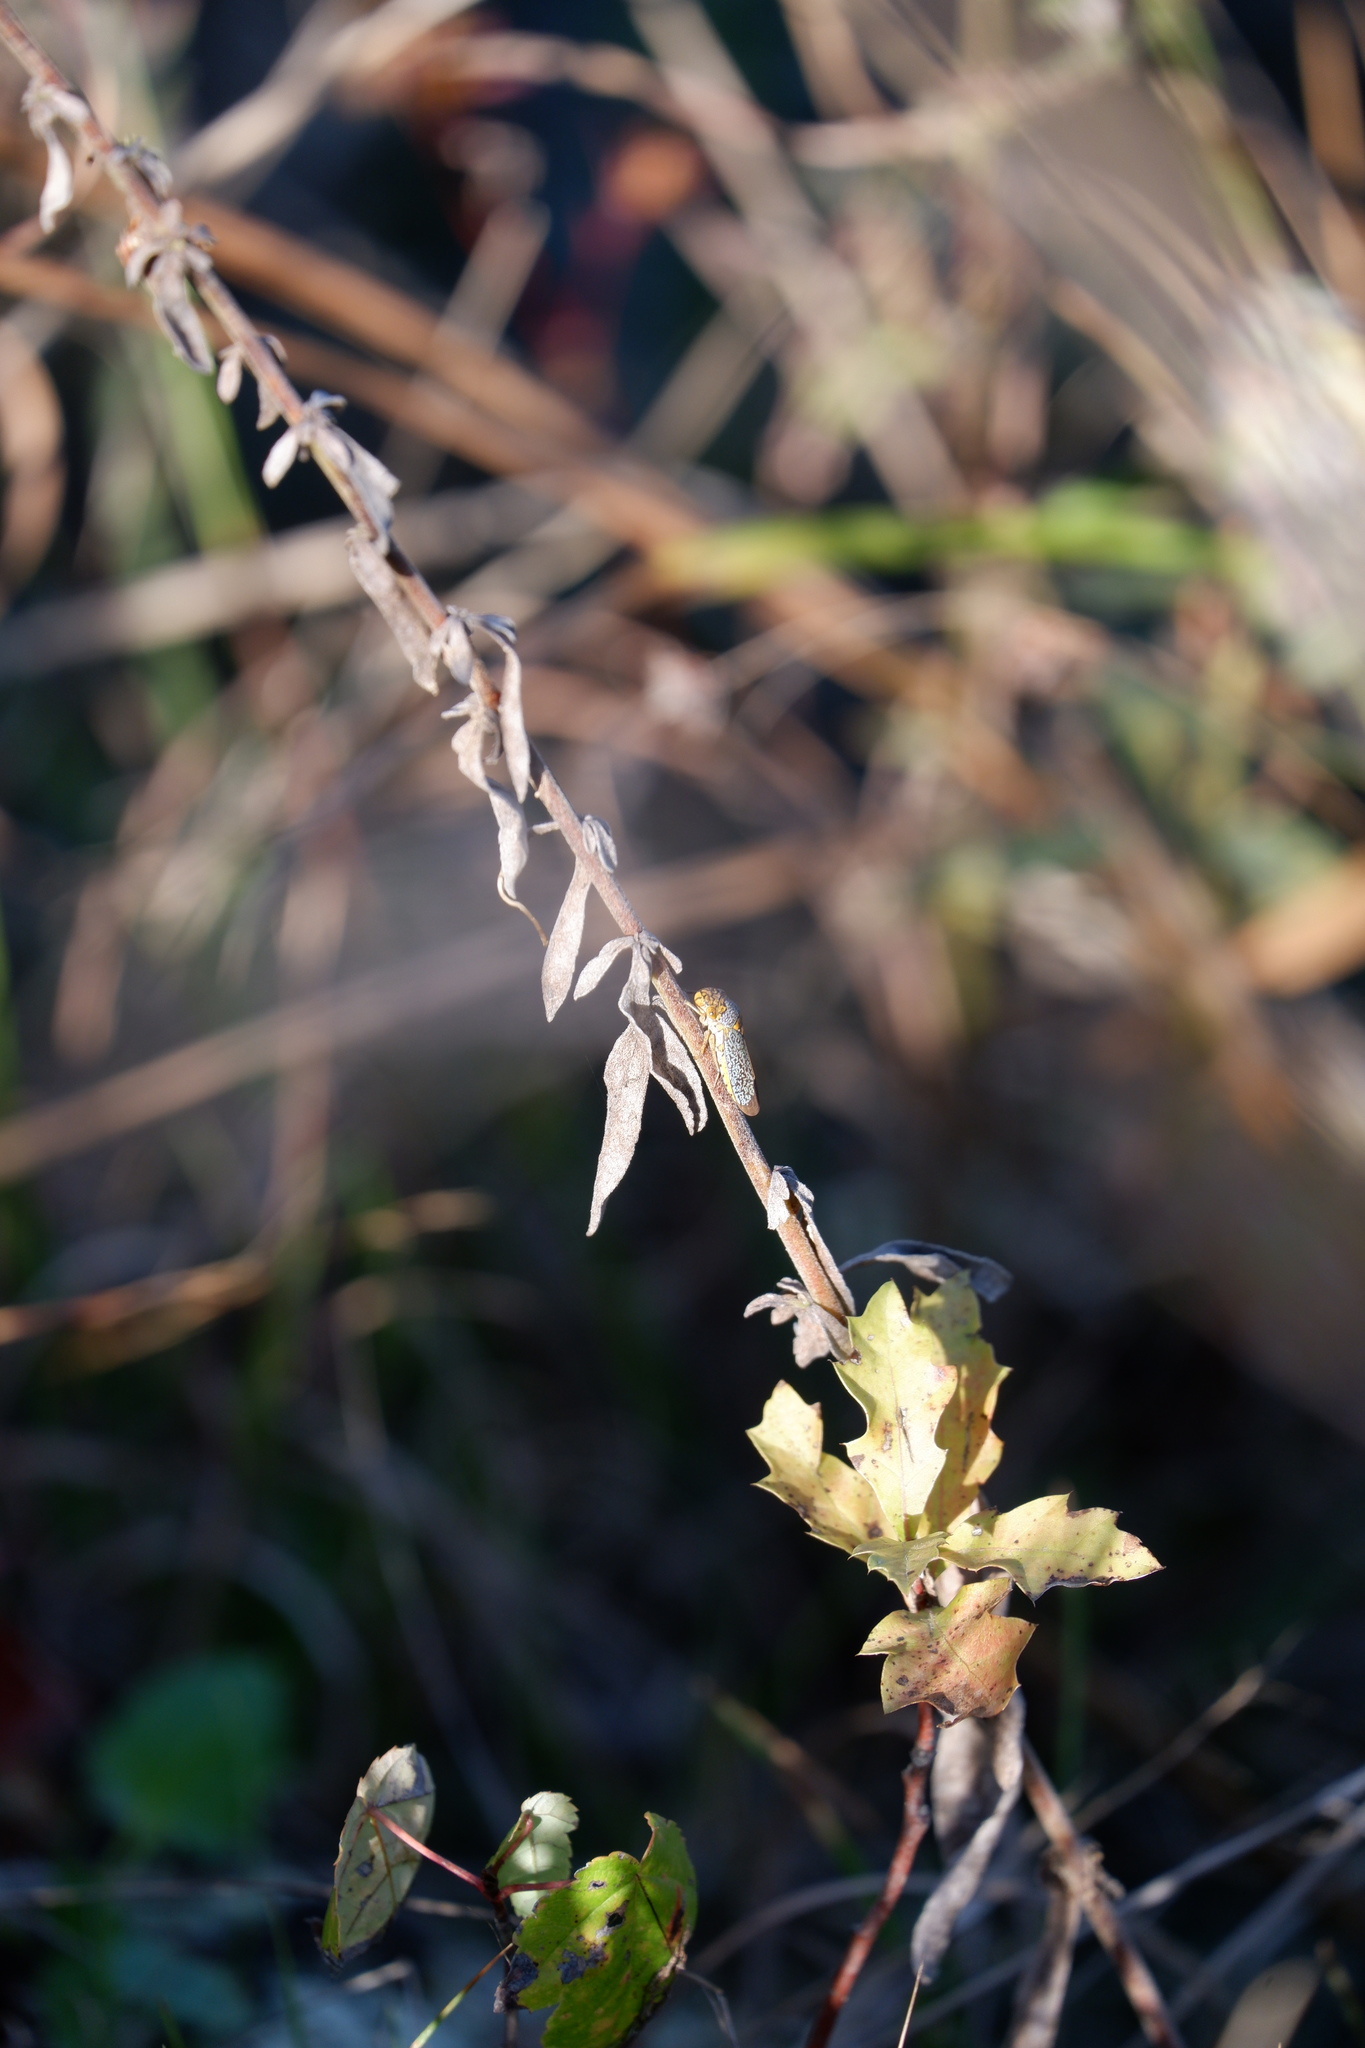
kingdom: Animalia
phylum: Arthropoda
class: Insecta
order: Hemiptera
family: Cicadellidae
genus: Oncometopia
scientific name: Oncometopia orbona
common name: Broad-headed sharpshooter
